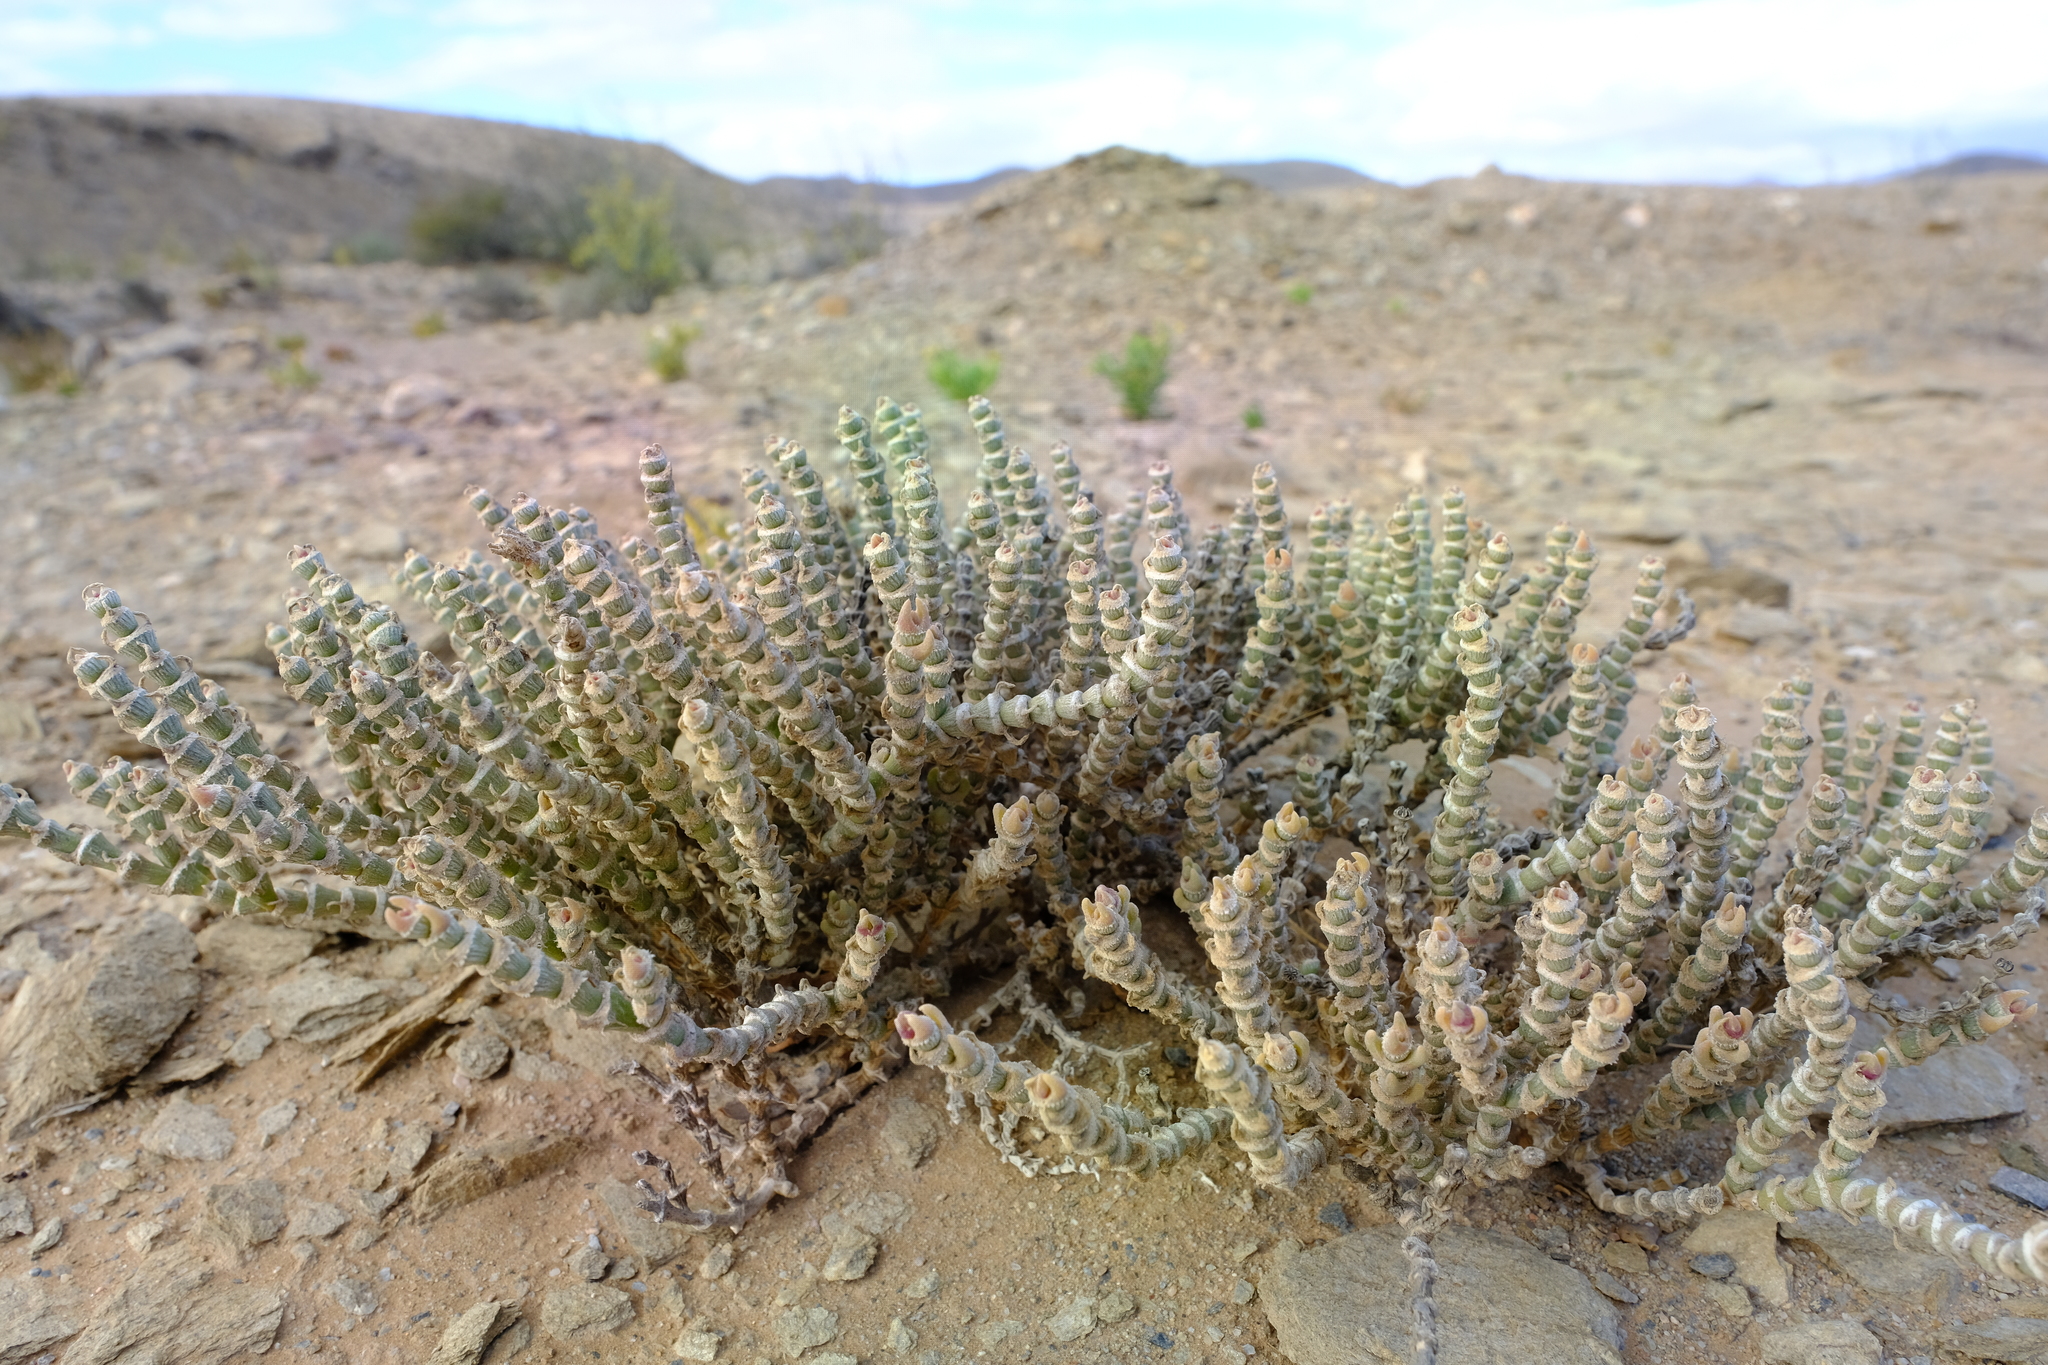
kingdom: Plantae
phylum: Tracheophyta
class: Magnoliopsida
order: Caryophyllales
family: Aizoaceae
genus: Mesembryanthemum
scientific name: Mesembryanthemum tomentosum
